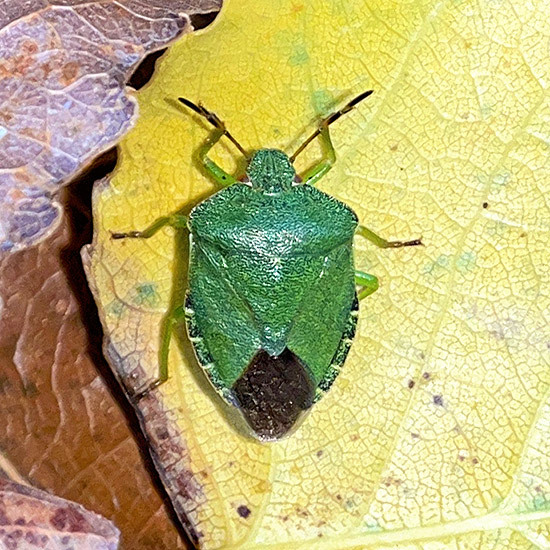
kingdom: Animalia
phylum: Arthropoda
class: Insecta
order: Hemiptera
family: Pentatomidae
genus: Palomena
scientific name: Palomena prasina
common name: Green shieldbug
